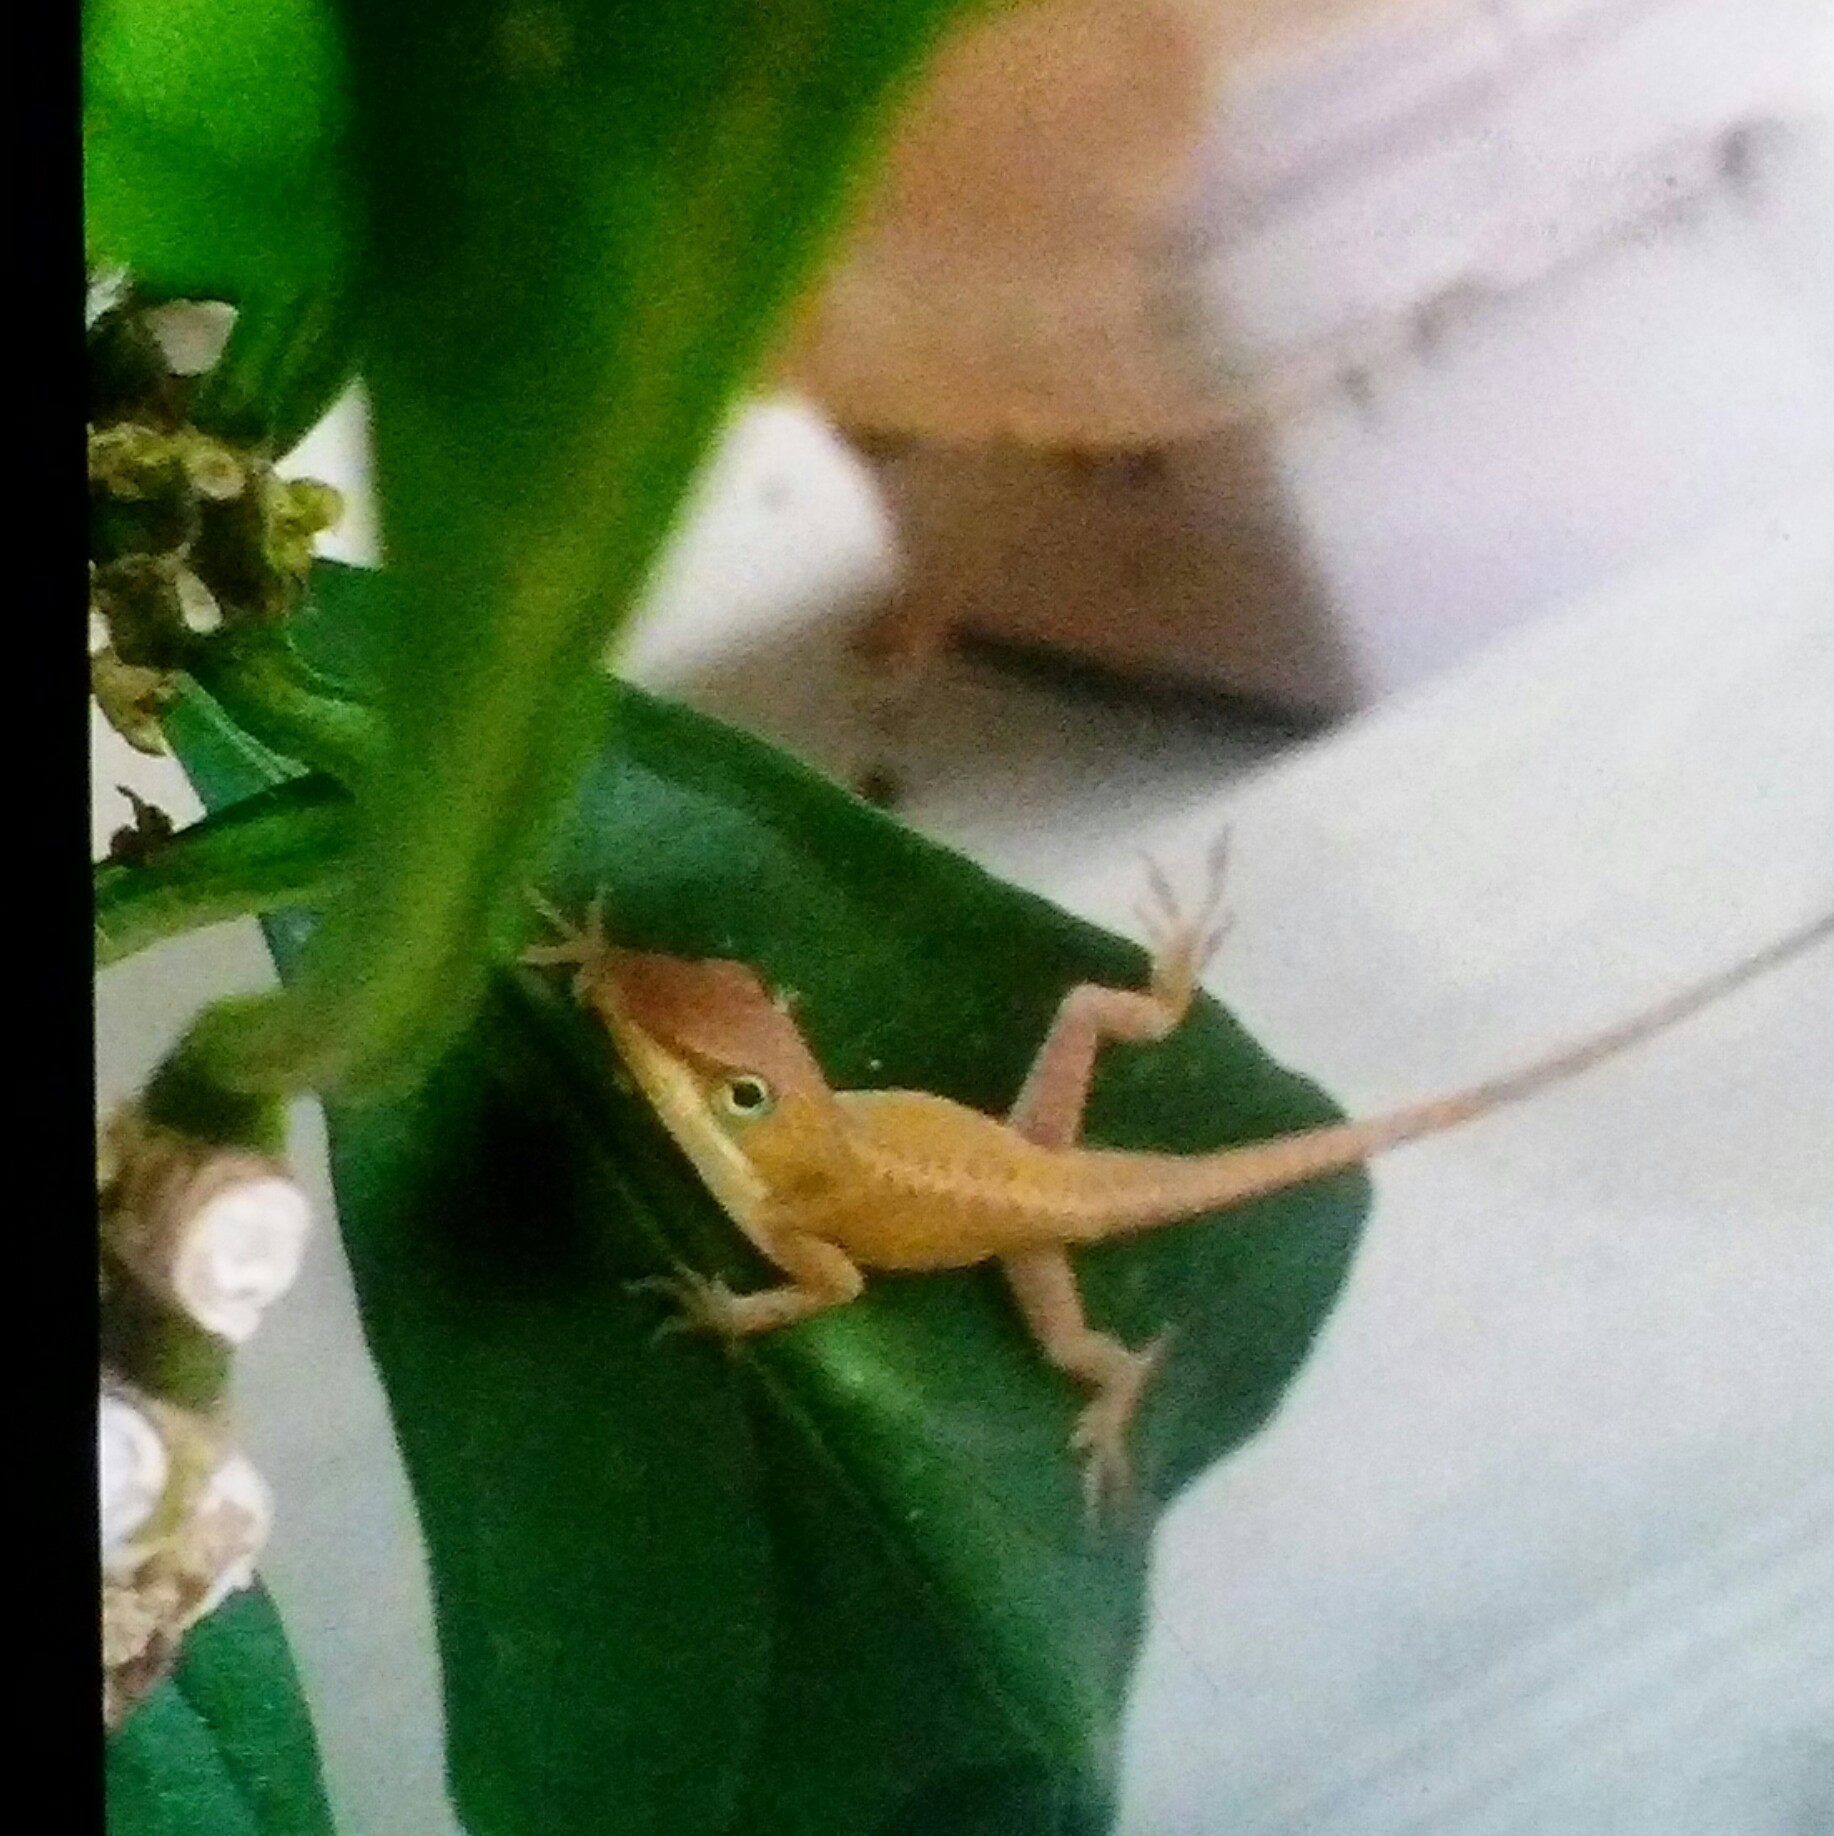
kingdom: Animalia
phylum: Chordata
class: Squamata
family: Dactyloidae
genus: Anolis
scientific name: Anolis carolinensis
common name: Green anole
